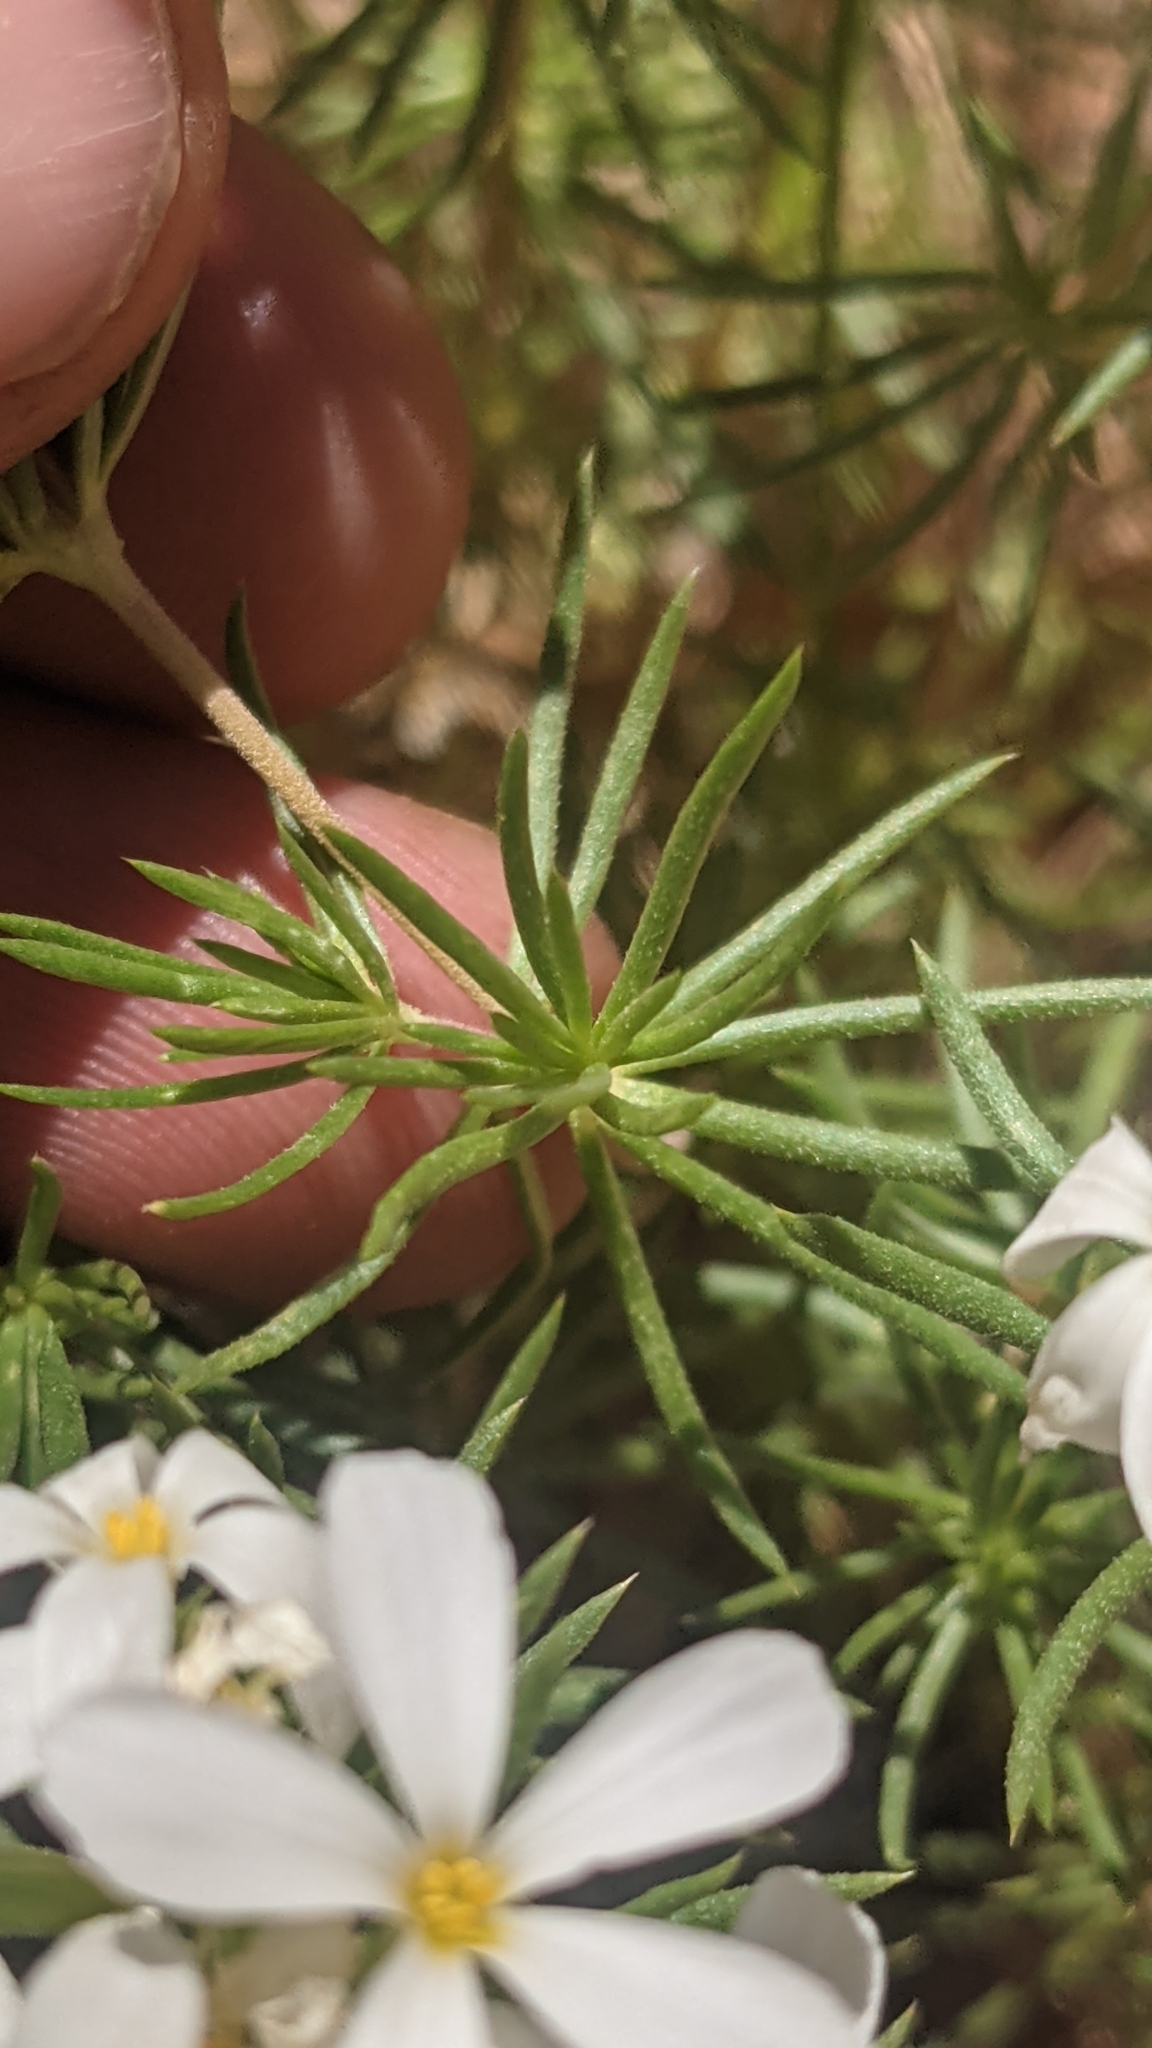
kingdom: Plantae
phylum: Tracheophyta
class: Magnoliopsida
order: Ericales
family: Polemoniaceae
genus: Leptosiphon
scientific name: Leptosiphon nuttallii
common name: Nuttall's linanthus
